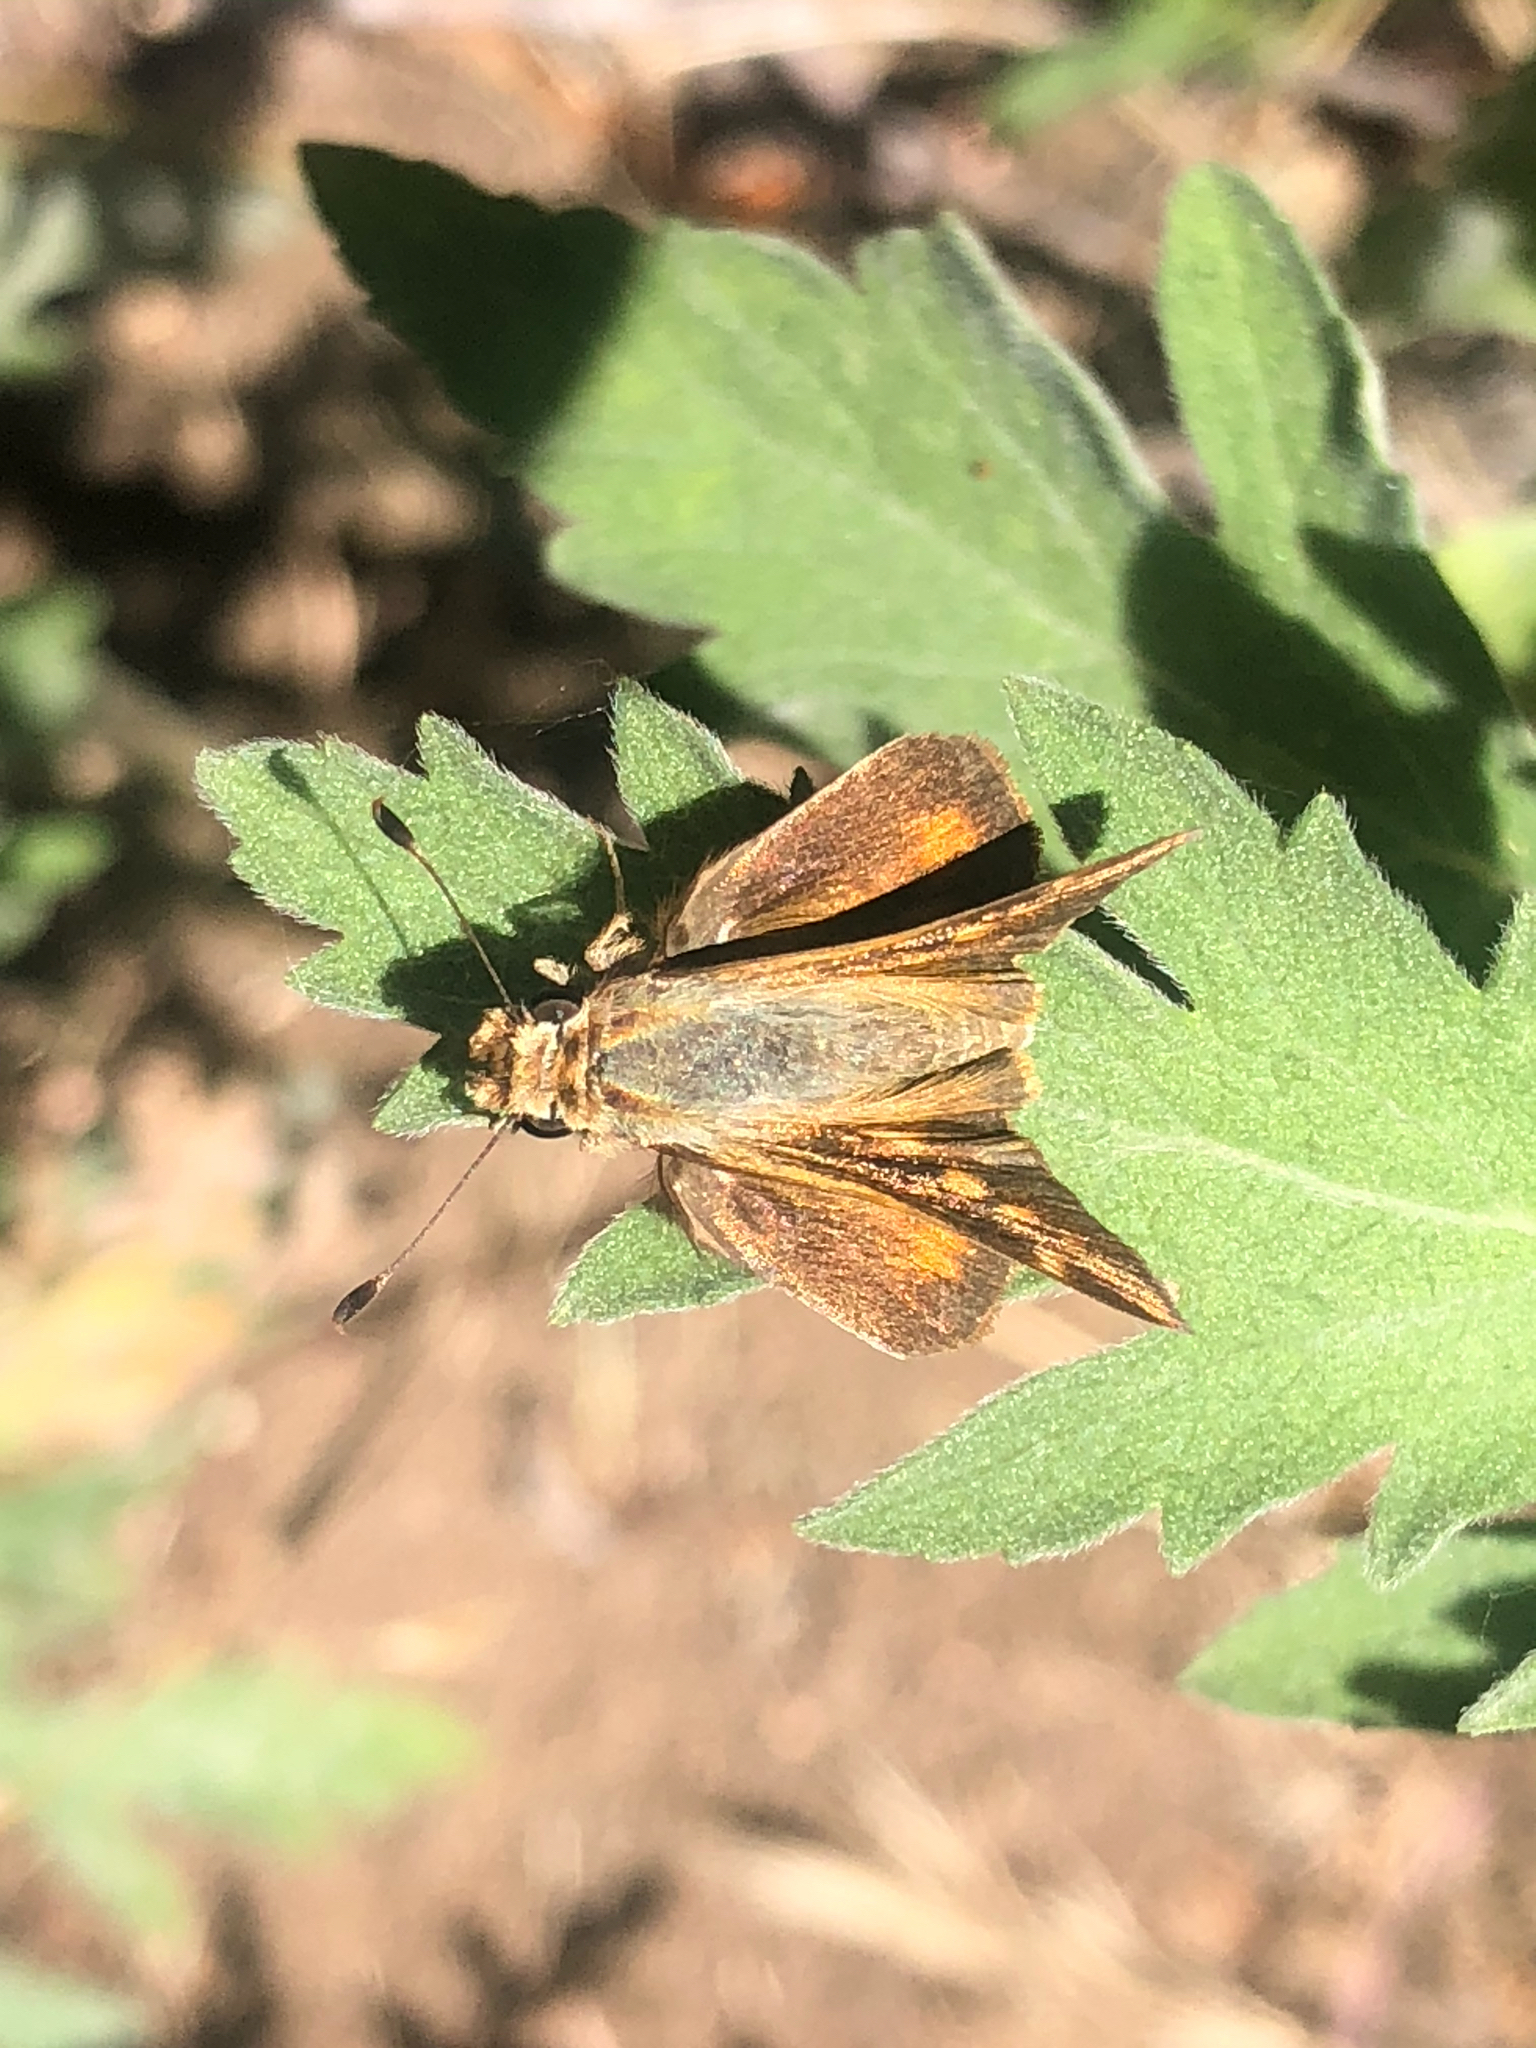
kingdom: Animalia
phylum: Arthropoda
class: Insecta
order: Lepidoptera
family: Hesperiidae
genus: Lon
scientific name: Lon melane
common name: Umber skipper
